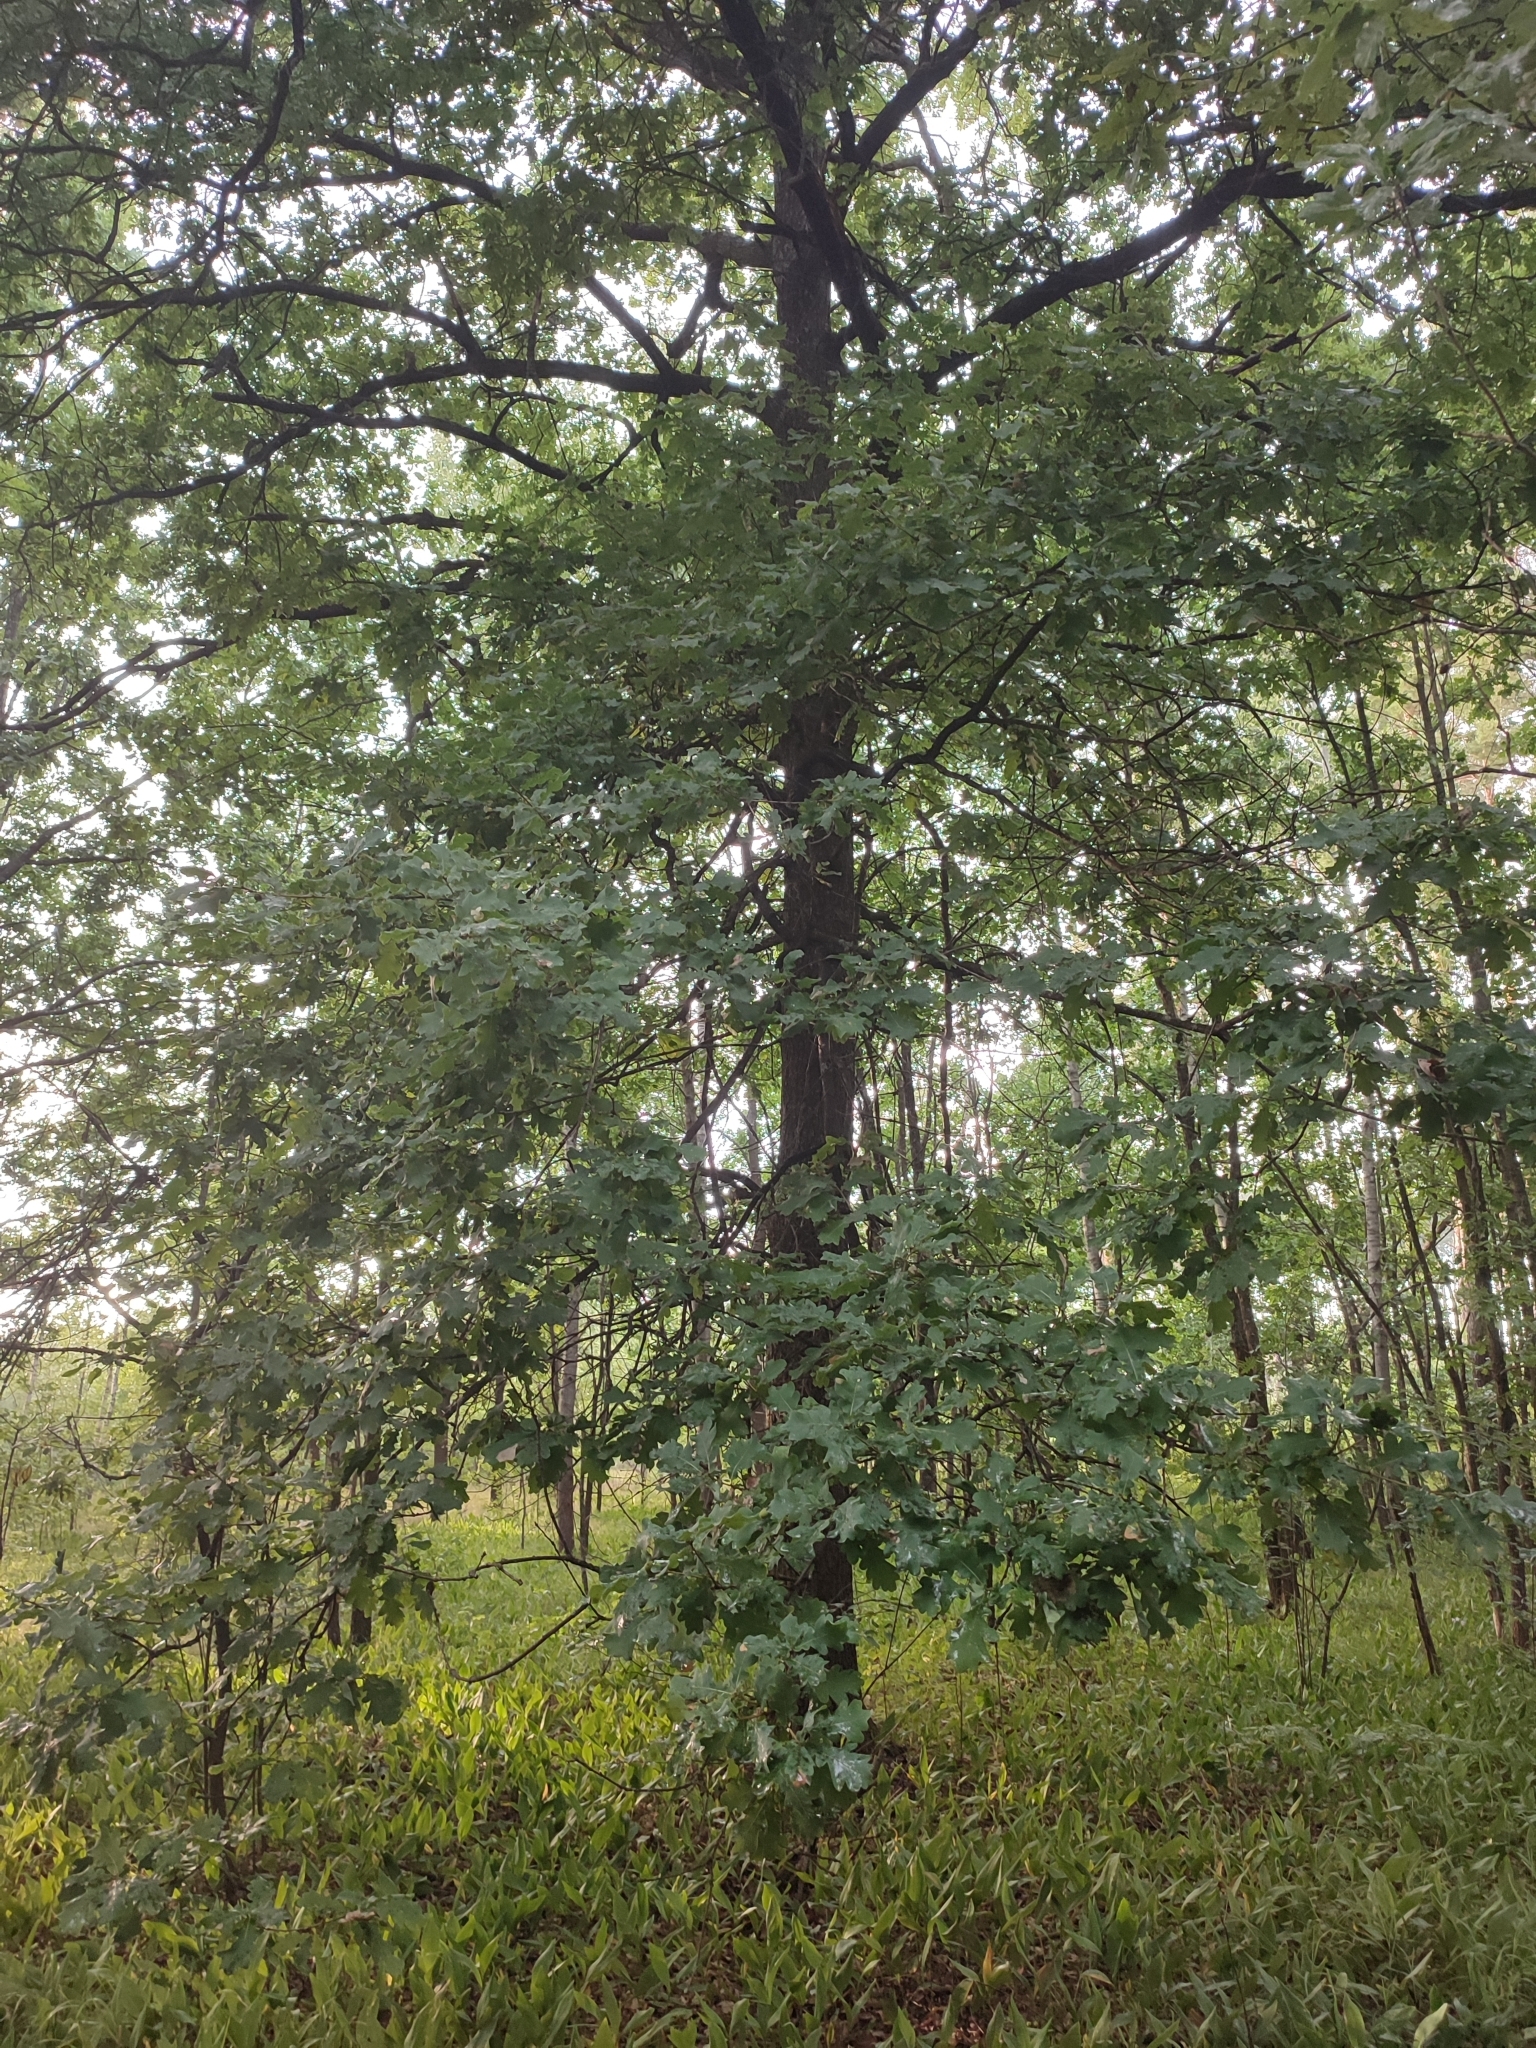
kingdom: Plantae
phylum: Tracheophyta
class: Magnoliopsida
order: Fagales
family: Fagaceae
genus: Quercus
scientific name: Quercus robur
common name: Pedunculate oak
